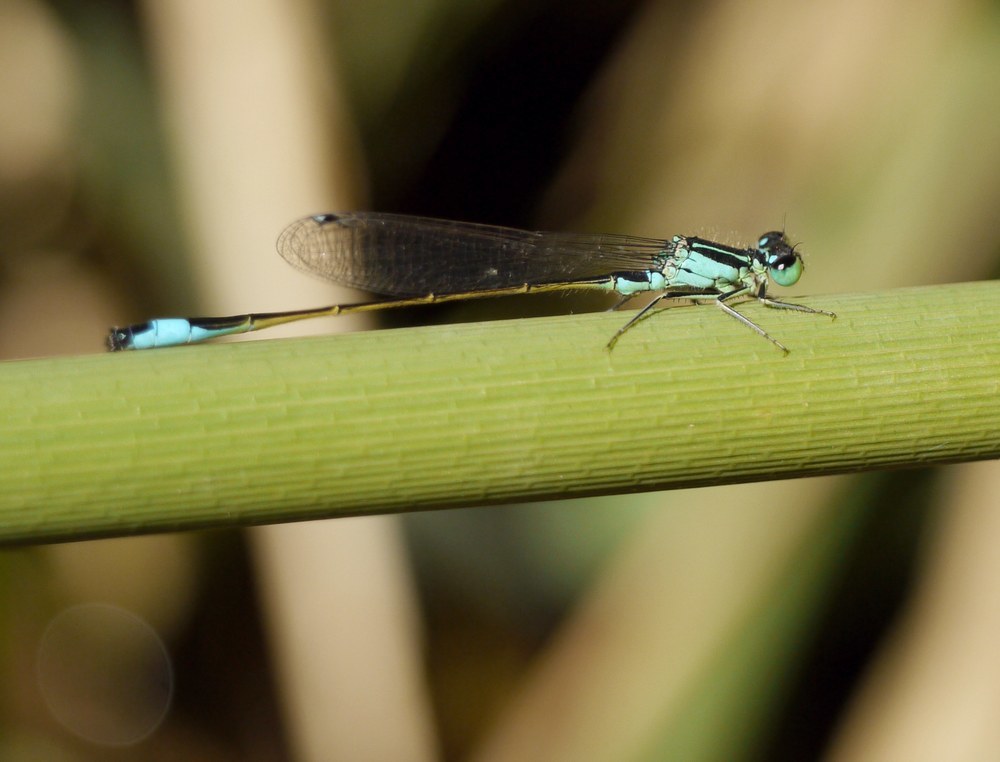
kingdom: Animalia
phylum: Arthropoda
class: Insecta
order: Odonata
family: Coenagrionidae
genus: Ischnura
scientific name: Ischnura elegans
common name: Blue-tailed damselfly
